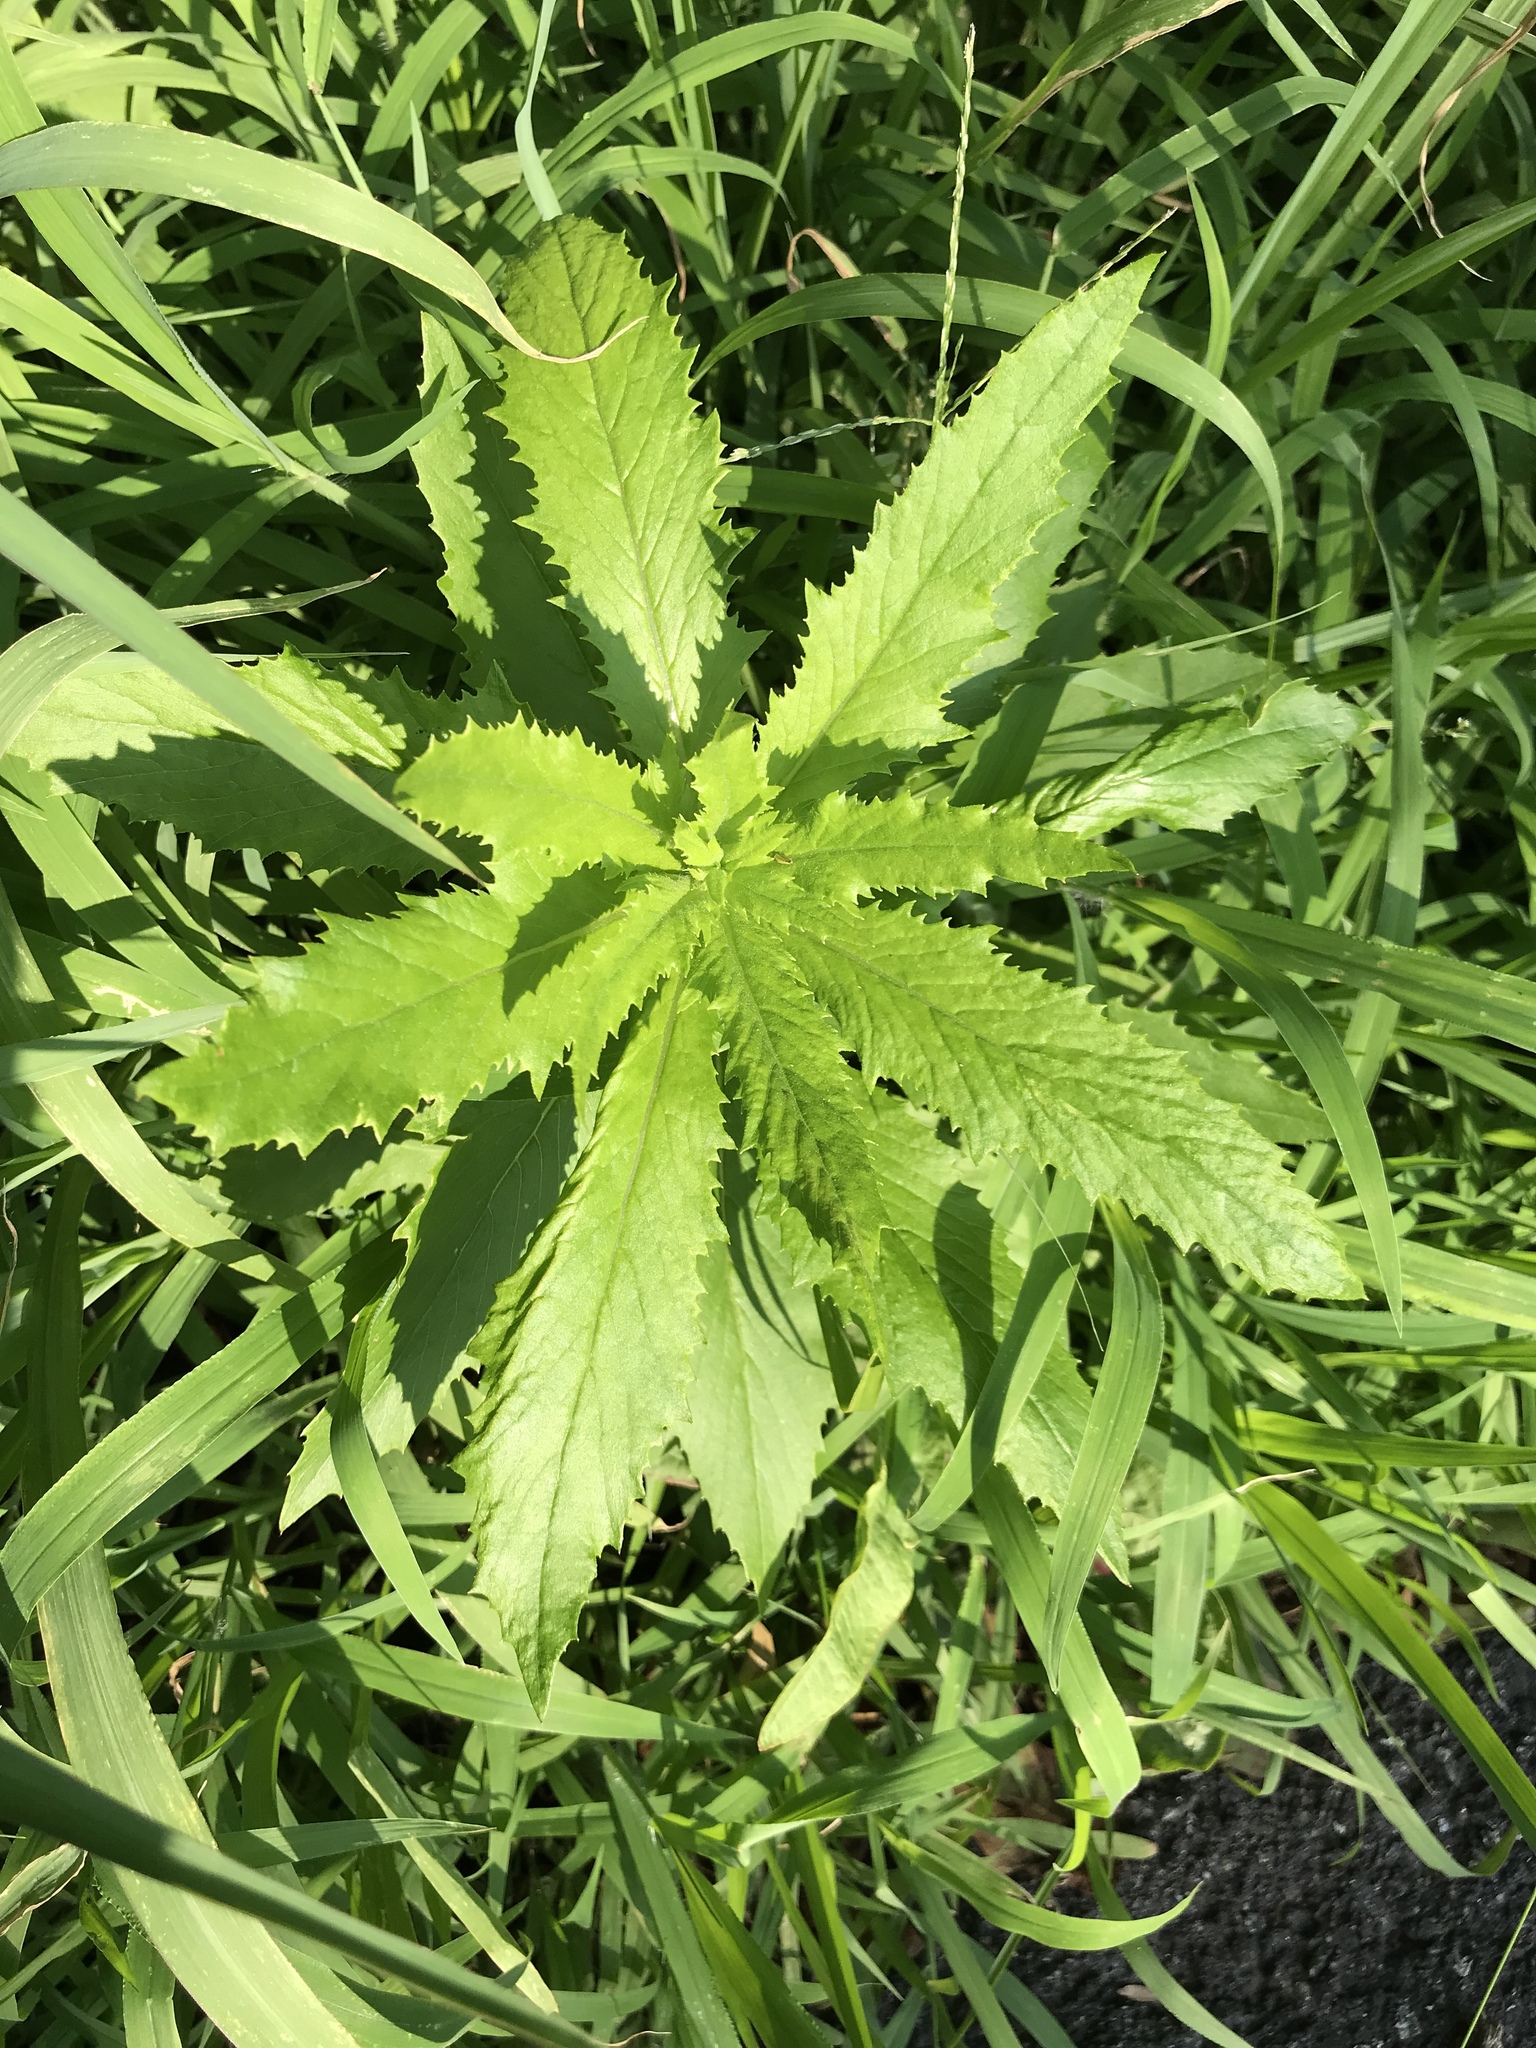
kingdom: Plantae
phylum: Tracheophyta
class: Magnoliopsida
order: Asterales
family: Asteraceae
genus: Erechtites
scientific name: Erechtites hieraciifolius
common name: American burnweed
